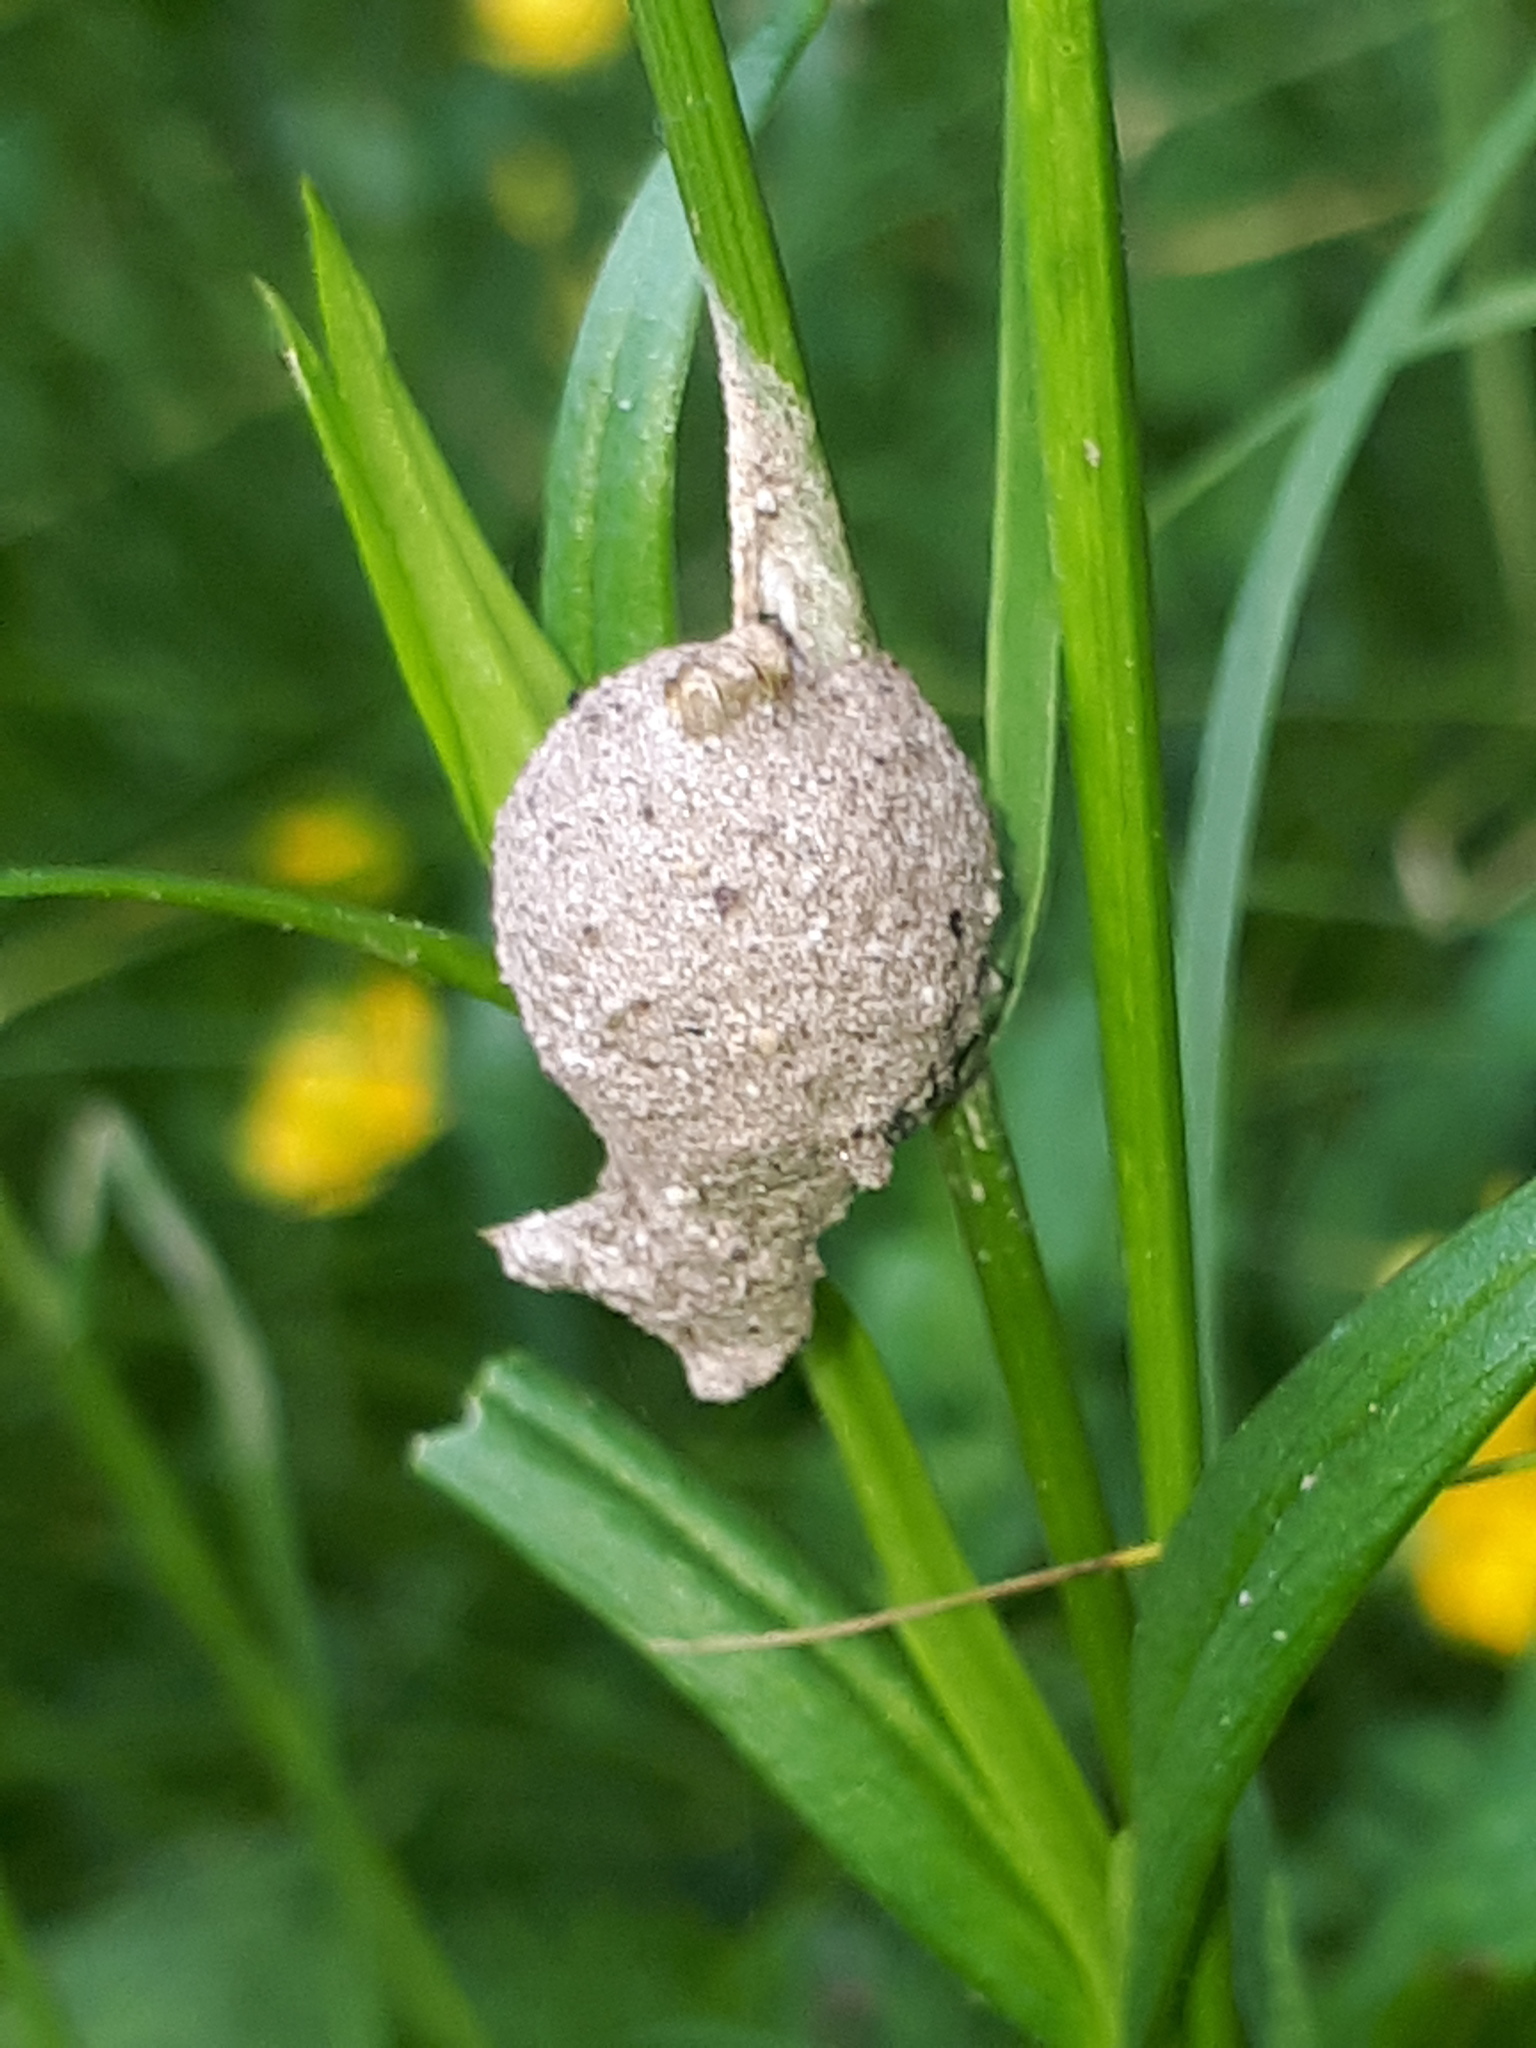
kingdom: Animalia
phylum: Arthropoda
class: Insecta
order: Hymenoptera
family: Eumenidae
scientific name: Eumenidae
